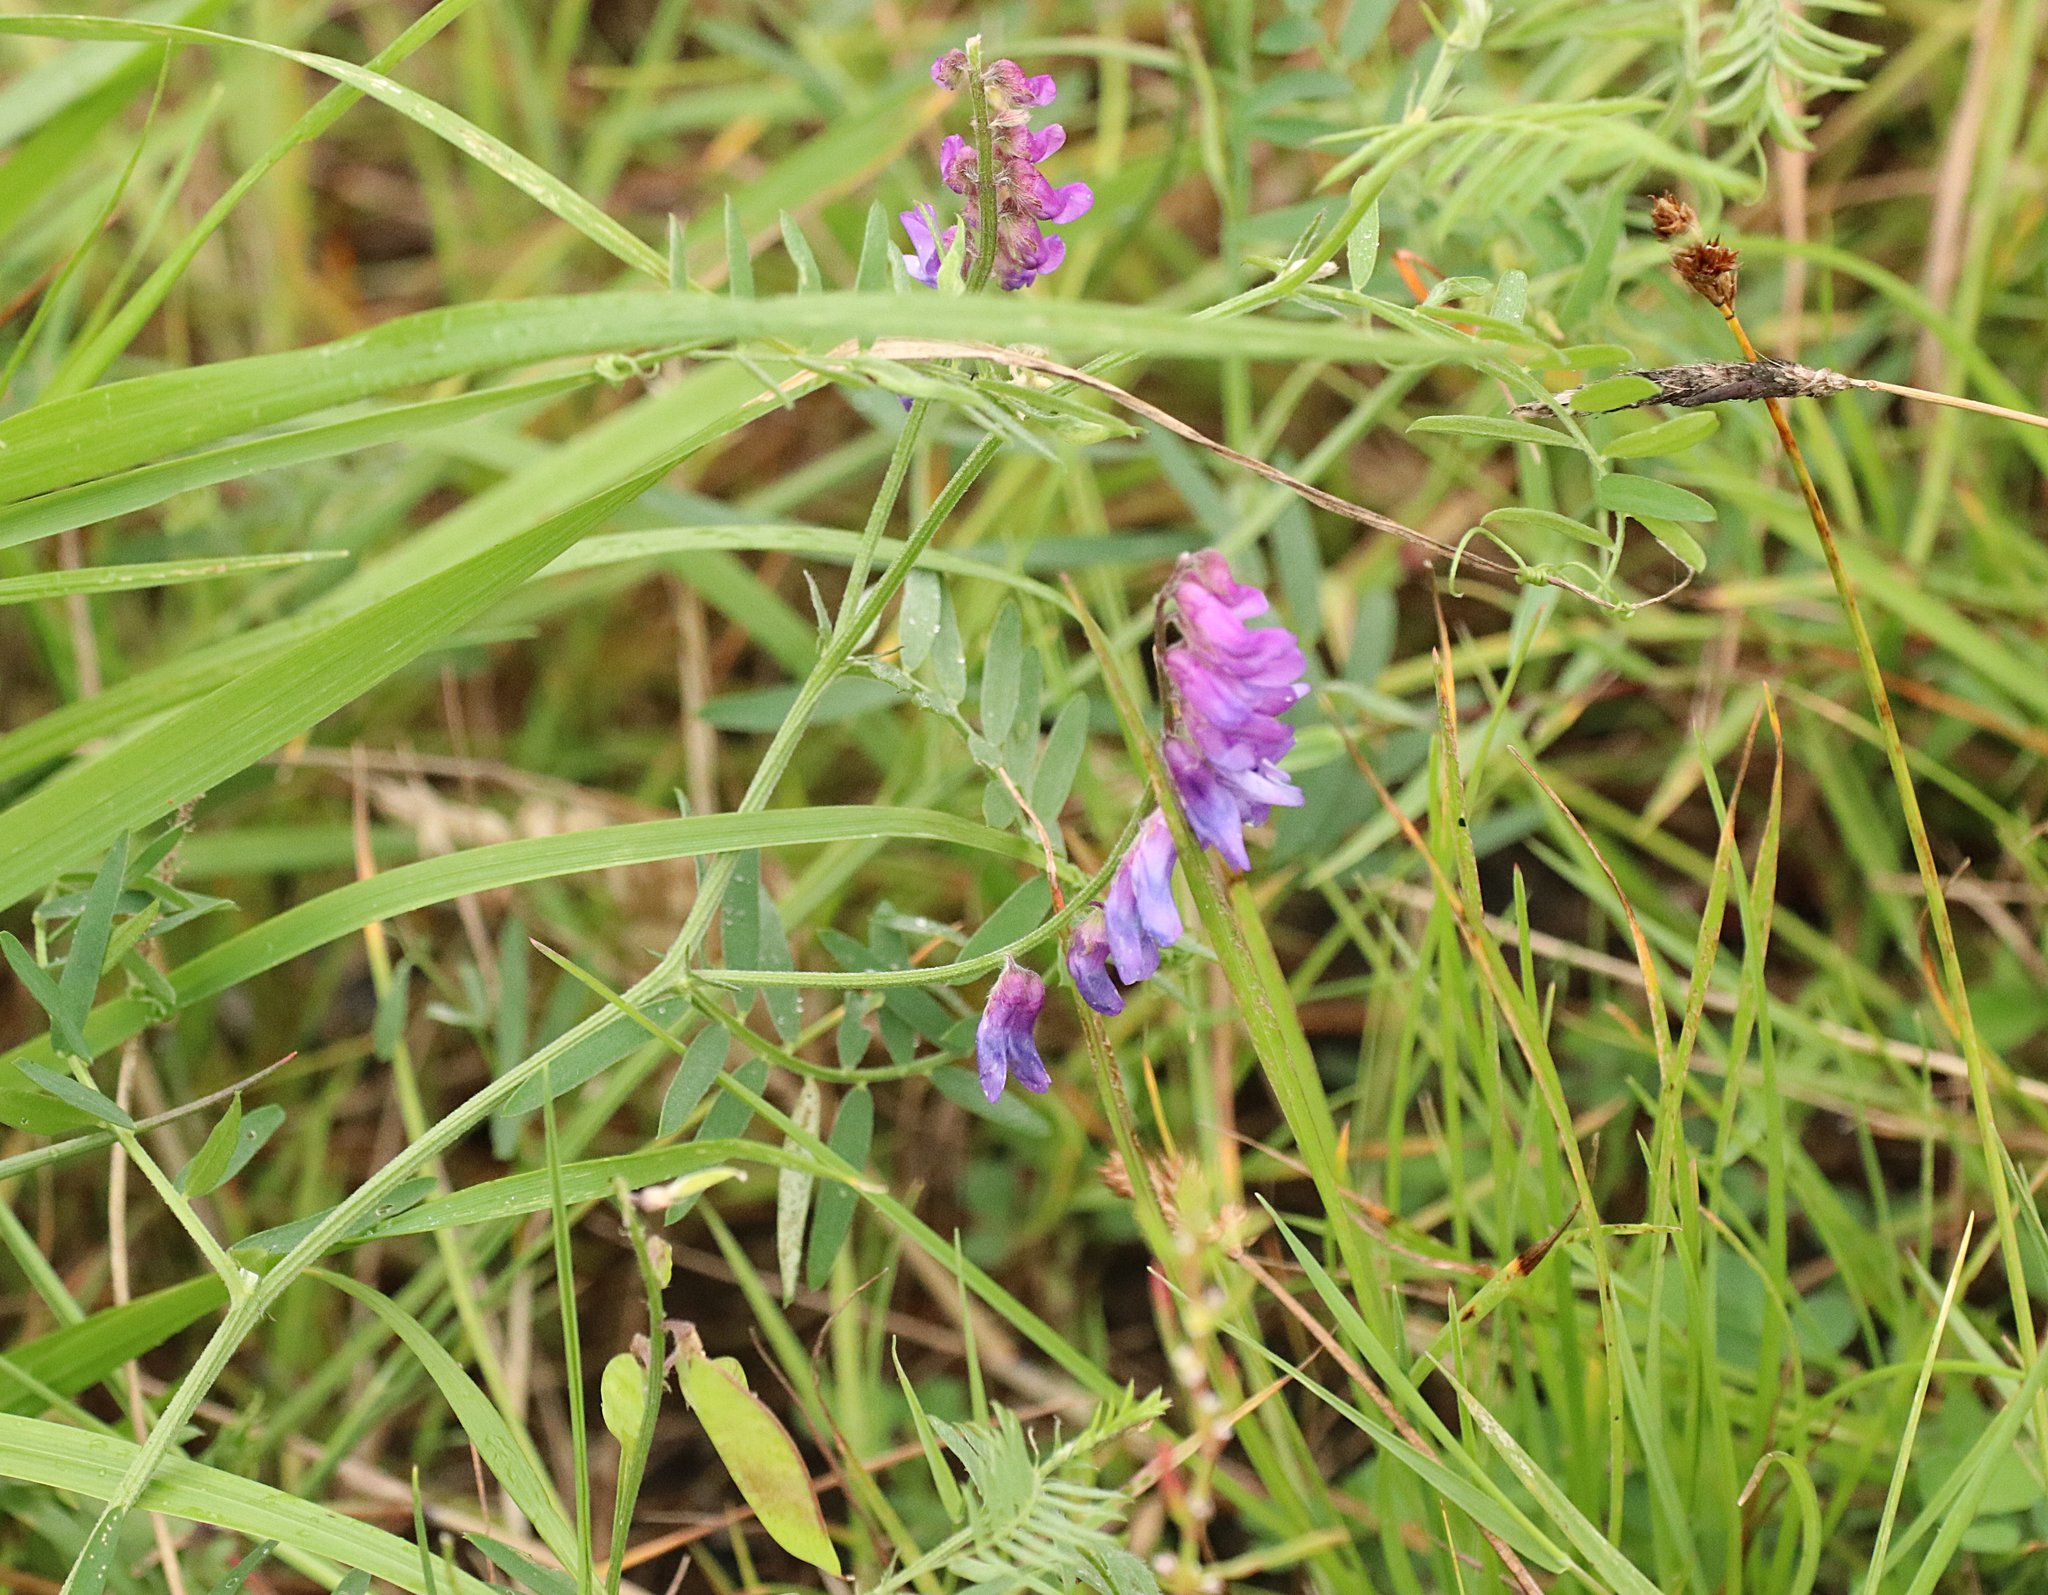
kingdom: Plantae
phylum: Tracheophyta
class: Magnoliopsida
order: Fabales
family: Fabaceae
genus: Vicia
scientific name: Vicia cracca
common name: Bird vetch
